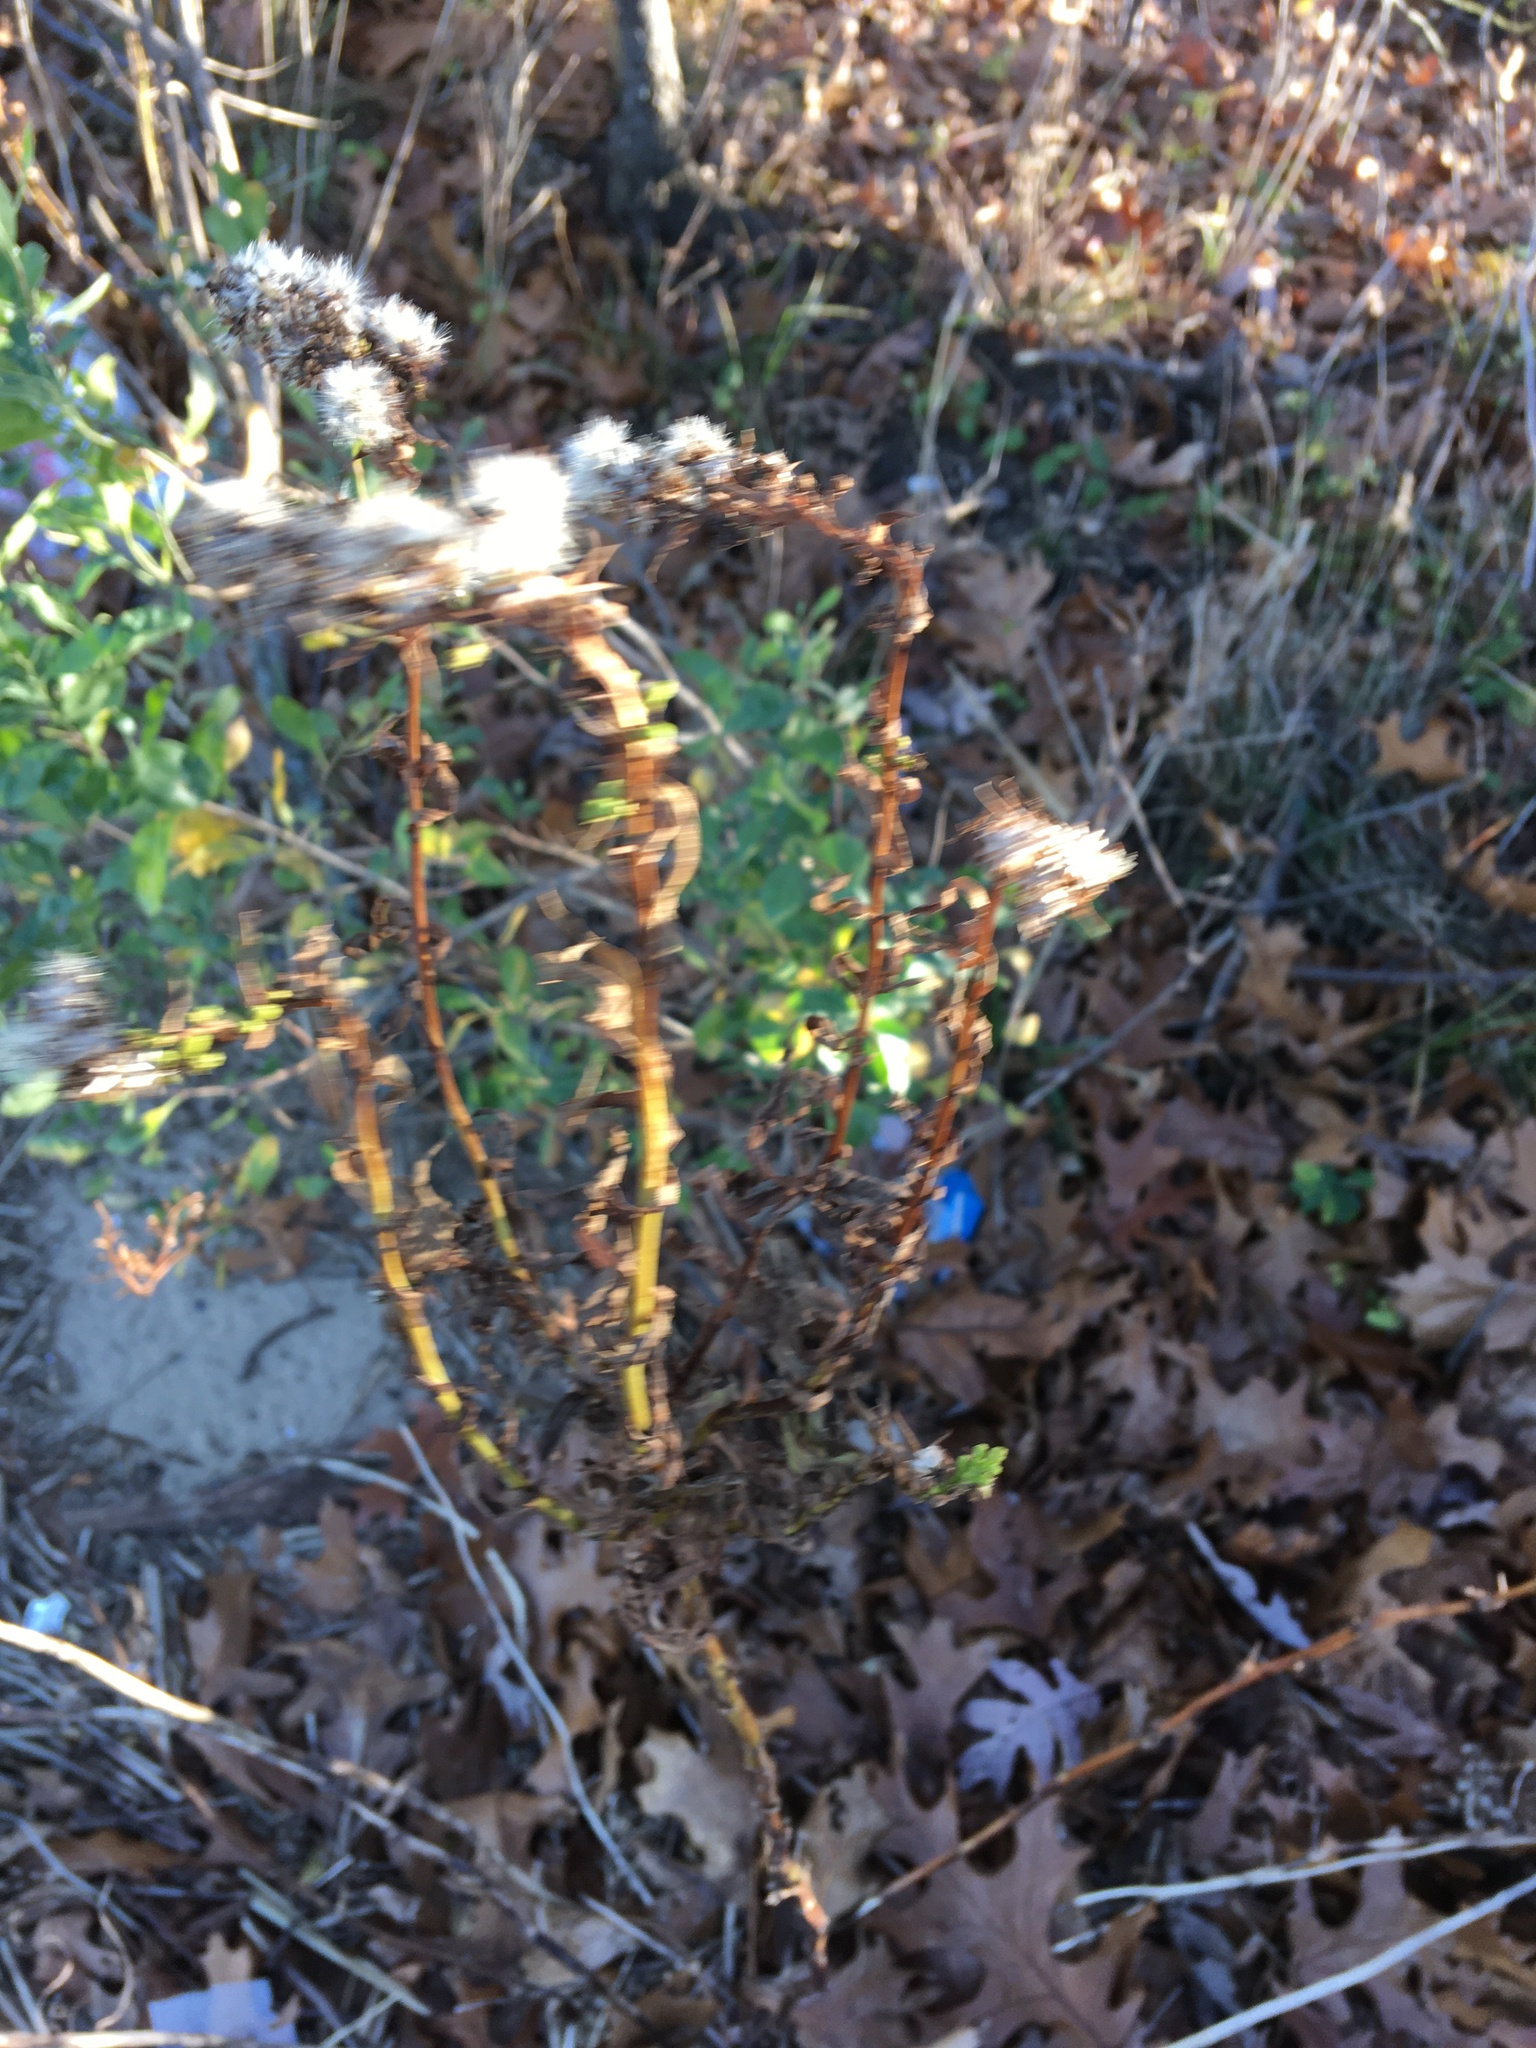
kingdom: Plantae
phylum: Tracheophyta
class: Magnoliopsida
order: Asterales
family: Asteraceae
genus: Solidago
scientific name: Solidago sempervirens
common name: Salt-marsh goldenrod
